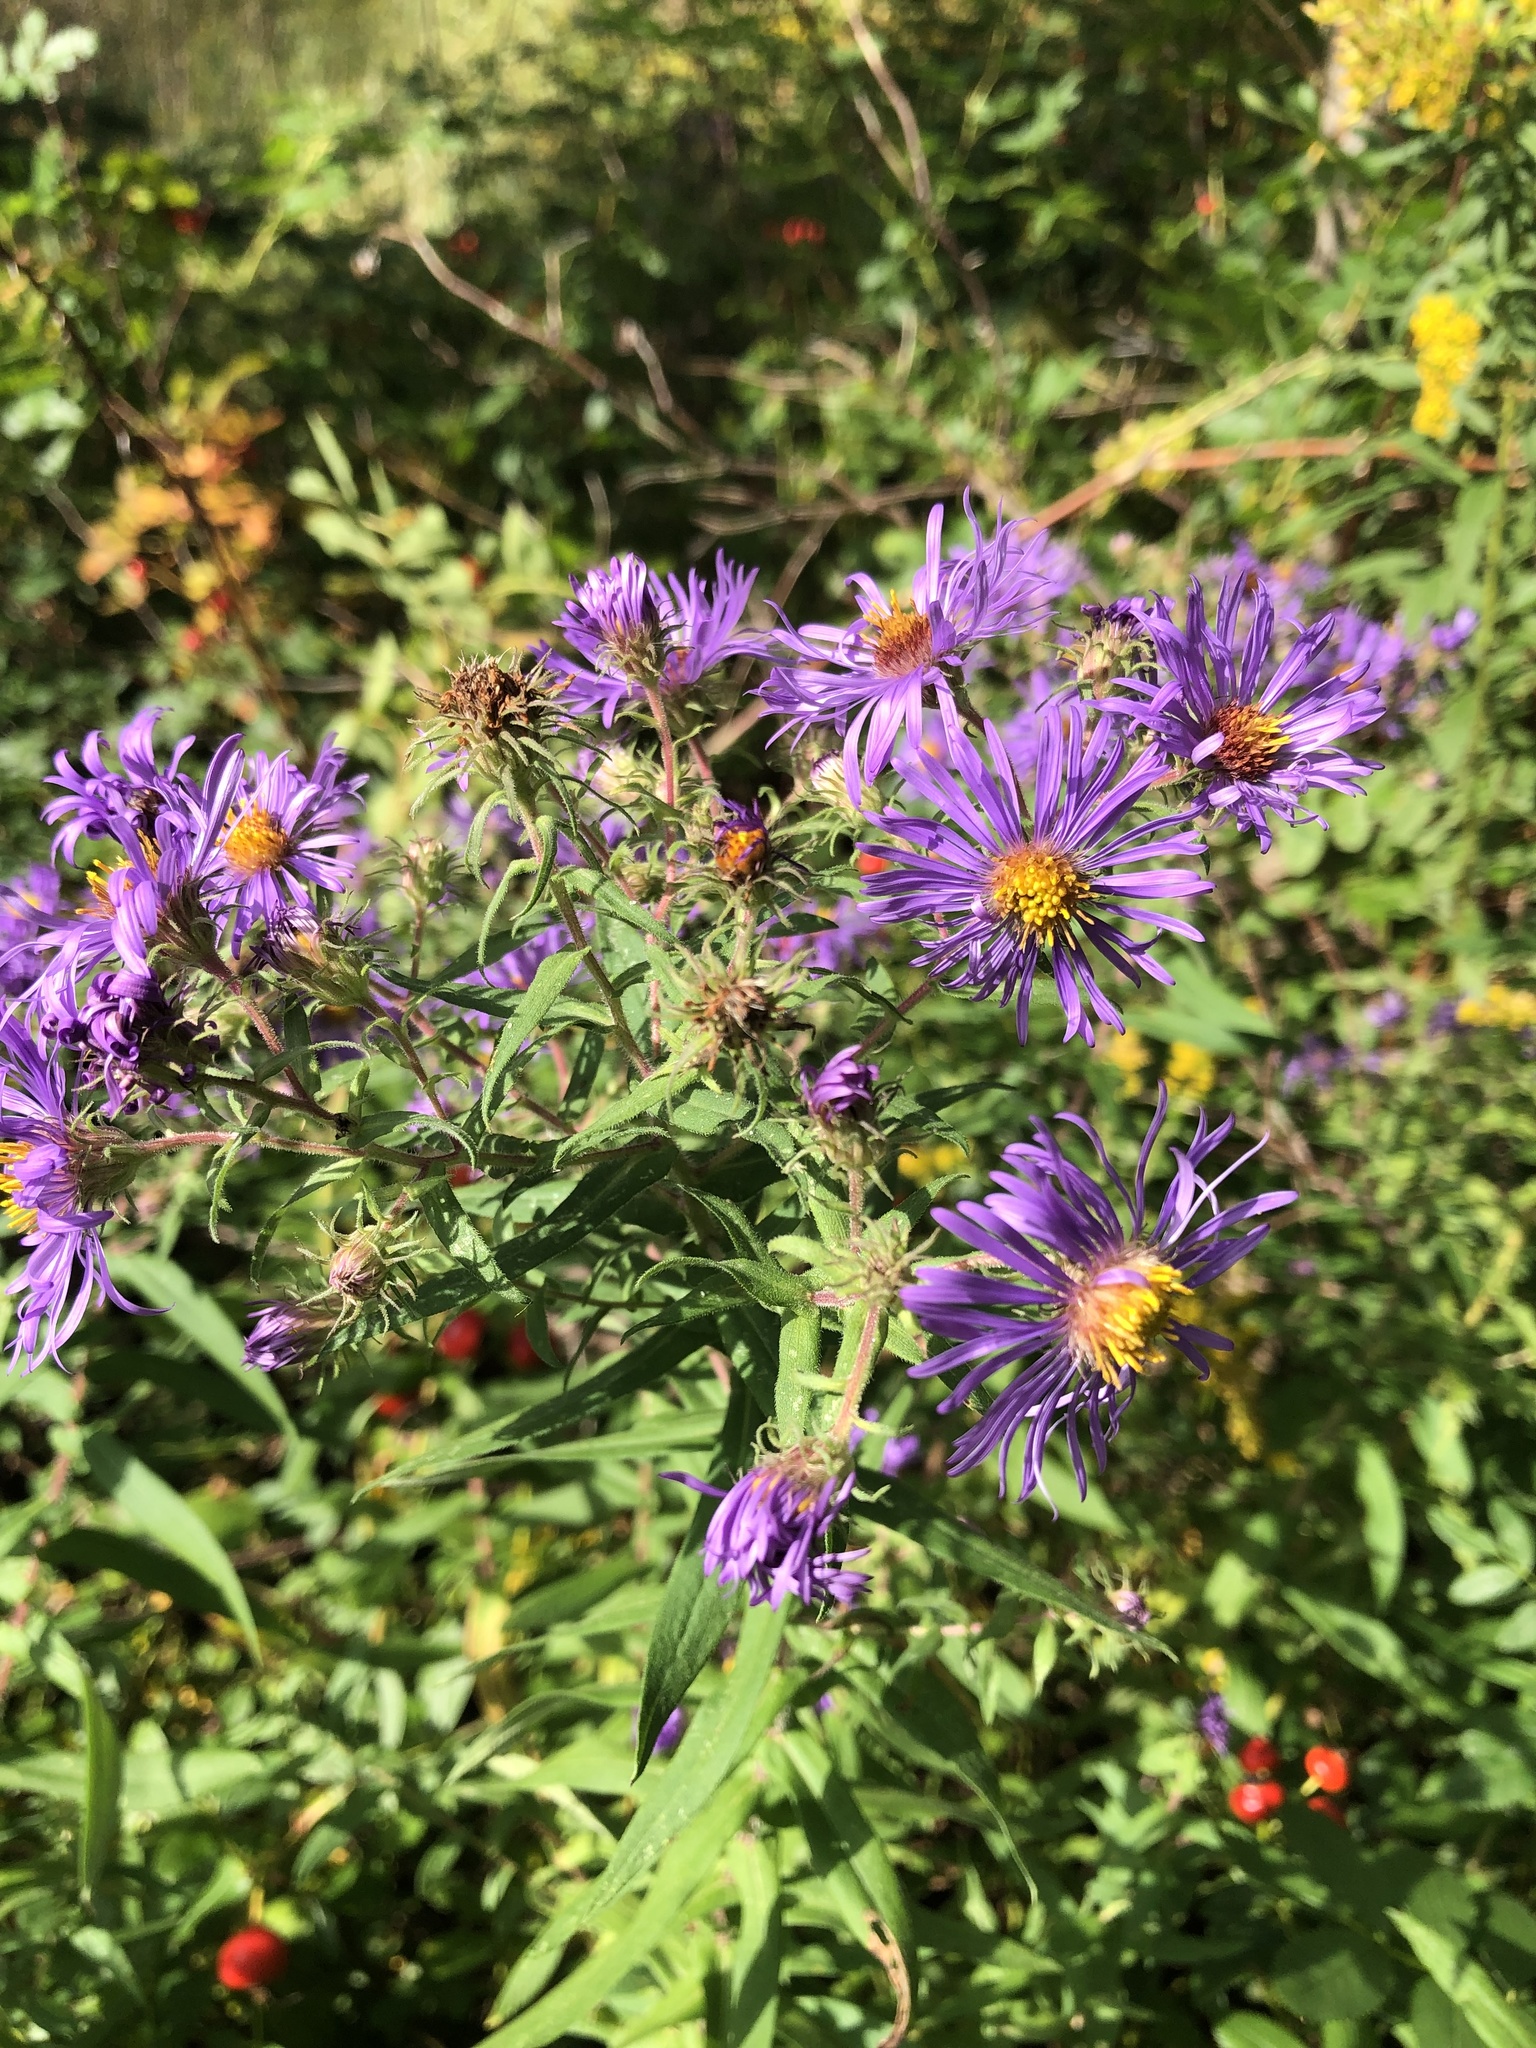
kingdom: Plantae
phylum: Tracheophyta
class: Magnoliopsida
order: Asterales
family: Asteraceae
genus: Symphyotrichum
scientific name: Symphyotrichum novae-angliae
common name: Michaelmas daisy
